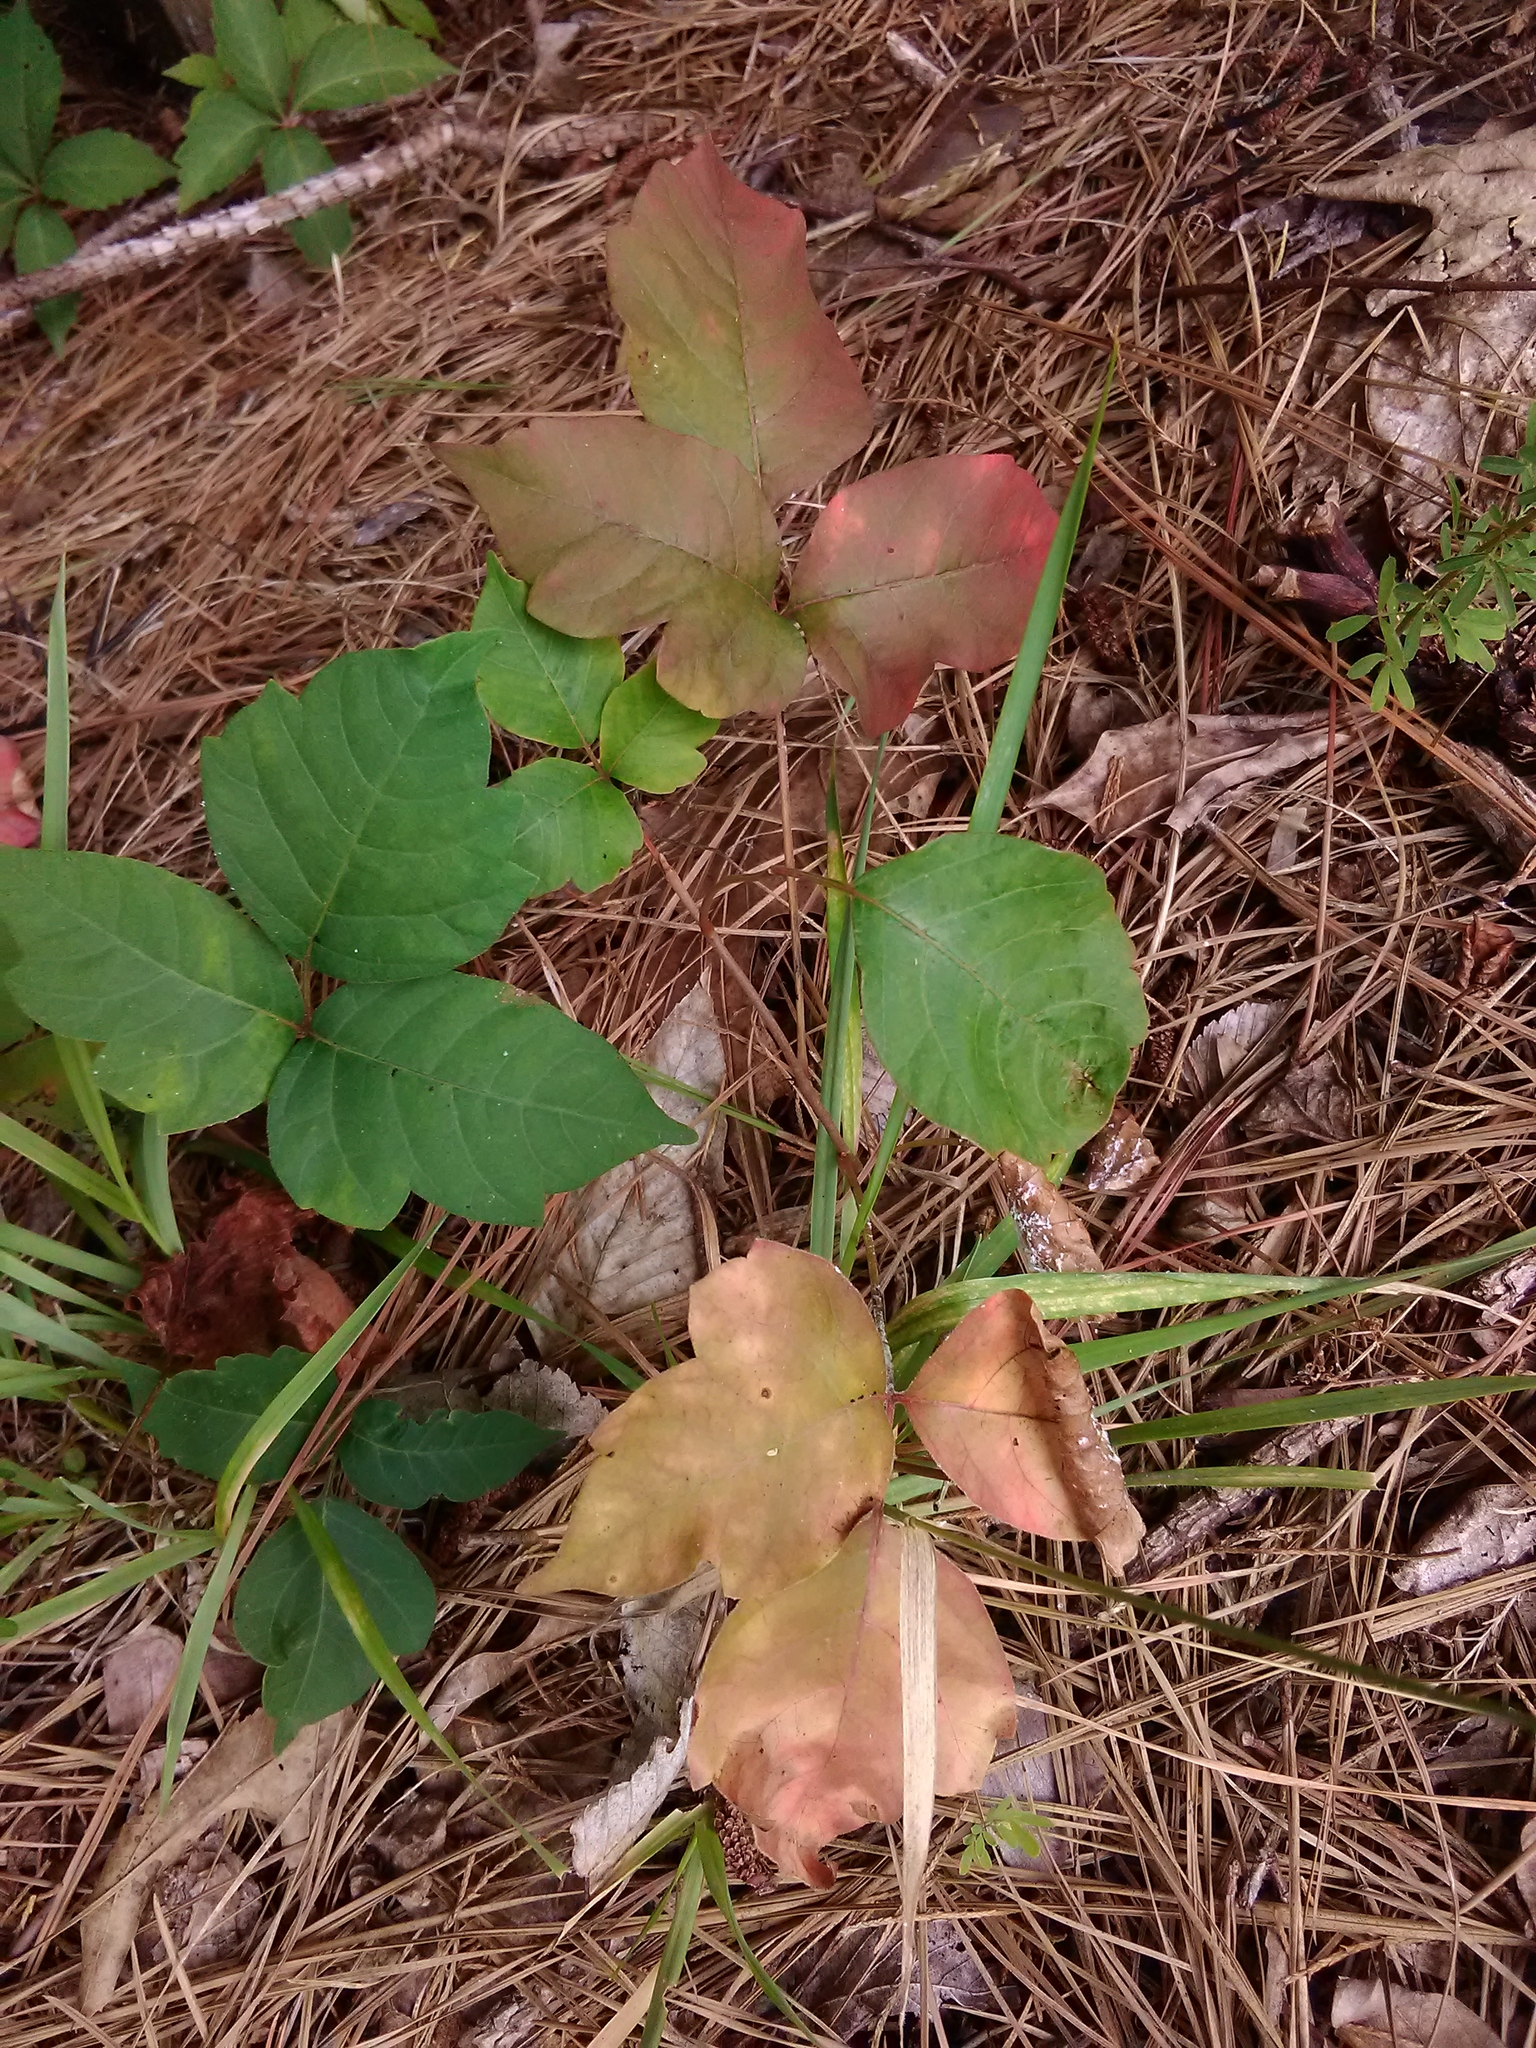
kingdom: Plantae
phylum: Tracheophyta
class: Magnoliopsida
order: Sapindales
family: Anacardiaceae
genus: Toxicodendron
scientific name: Toxicodendron radicans
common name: Poison ivy
